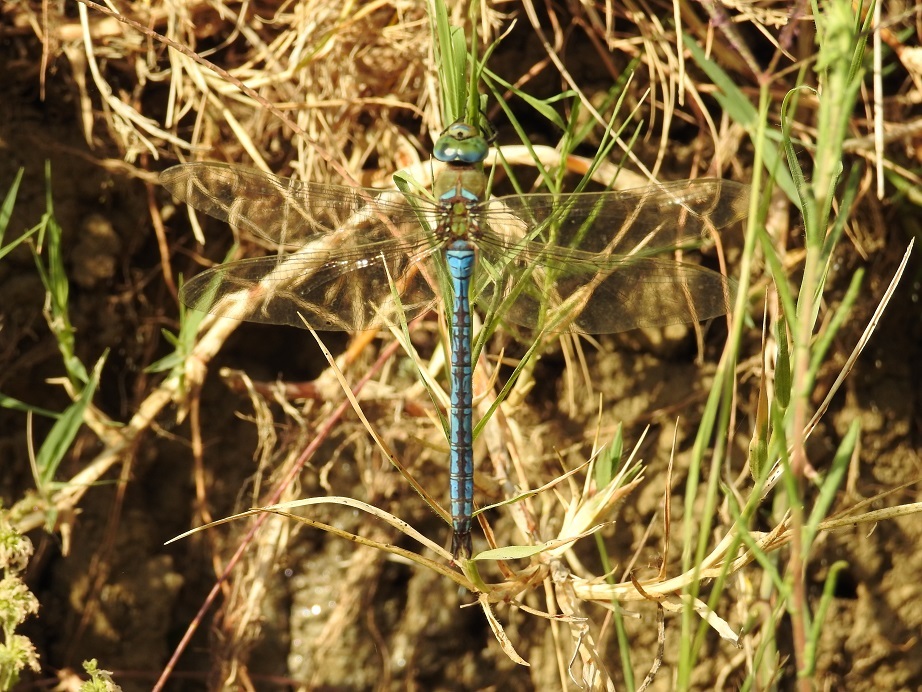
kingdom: Animalia
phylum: Arthropoda
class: Insecta
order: Odonata
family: Aeshnidae
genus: Anax
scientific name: Anax imperator
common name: Emperor dragonfly
